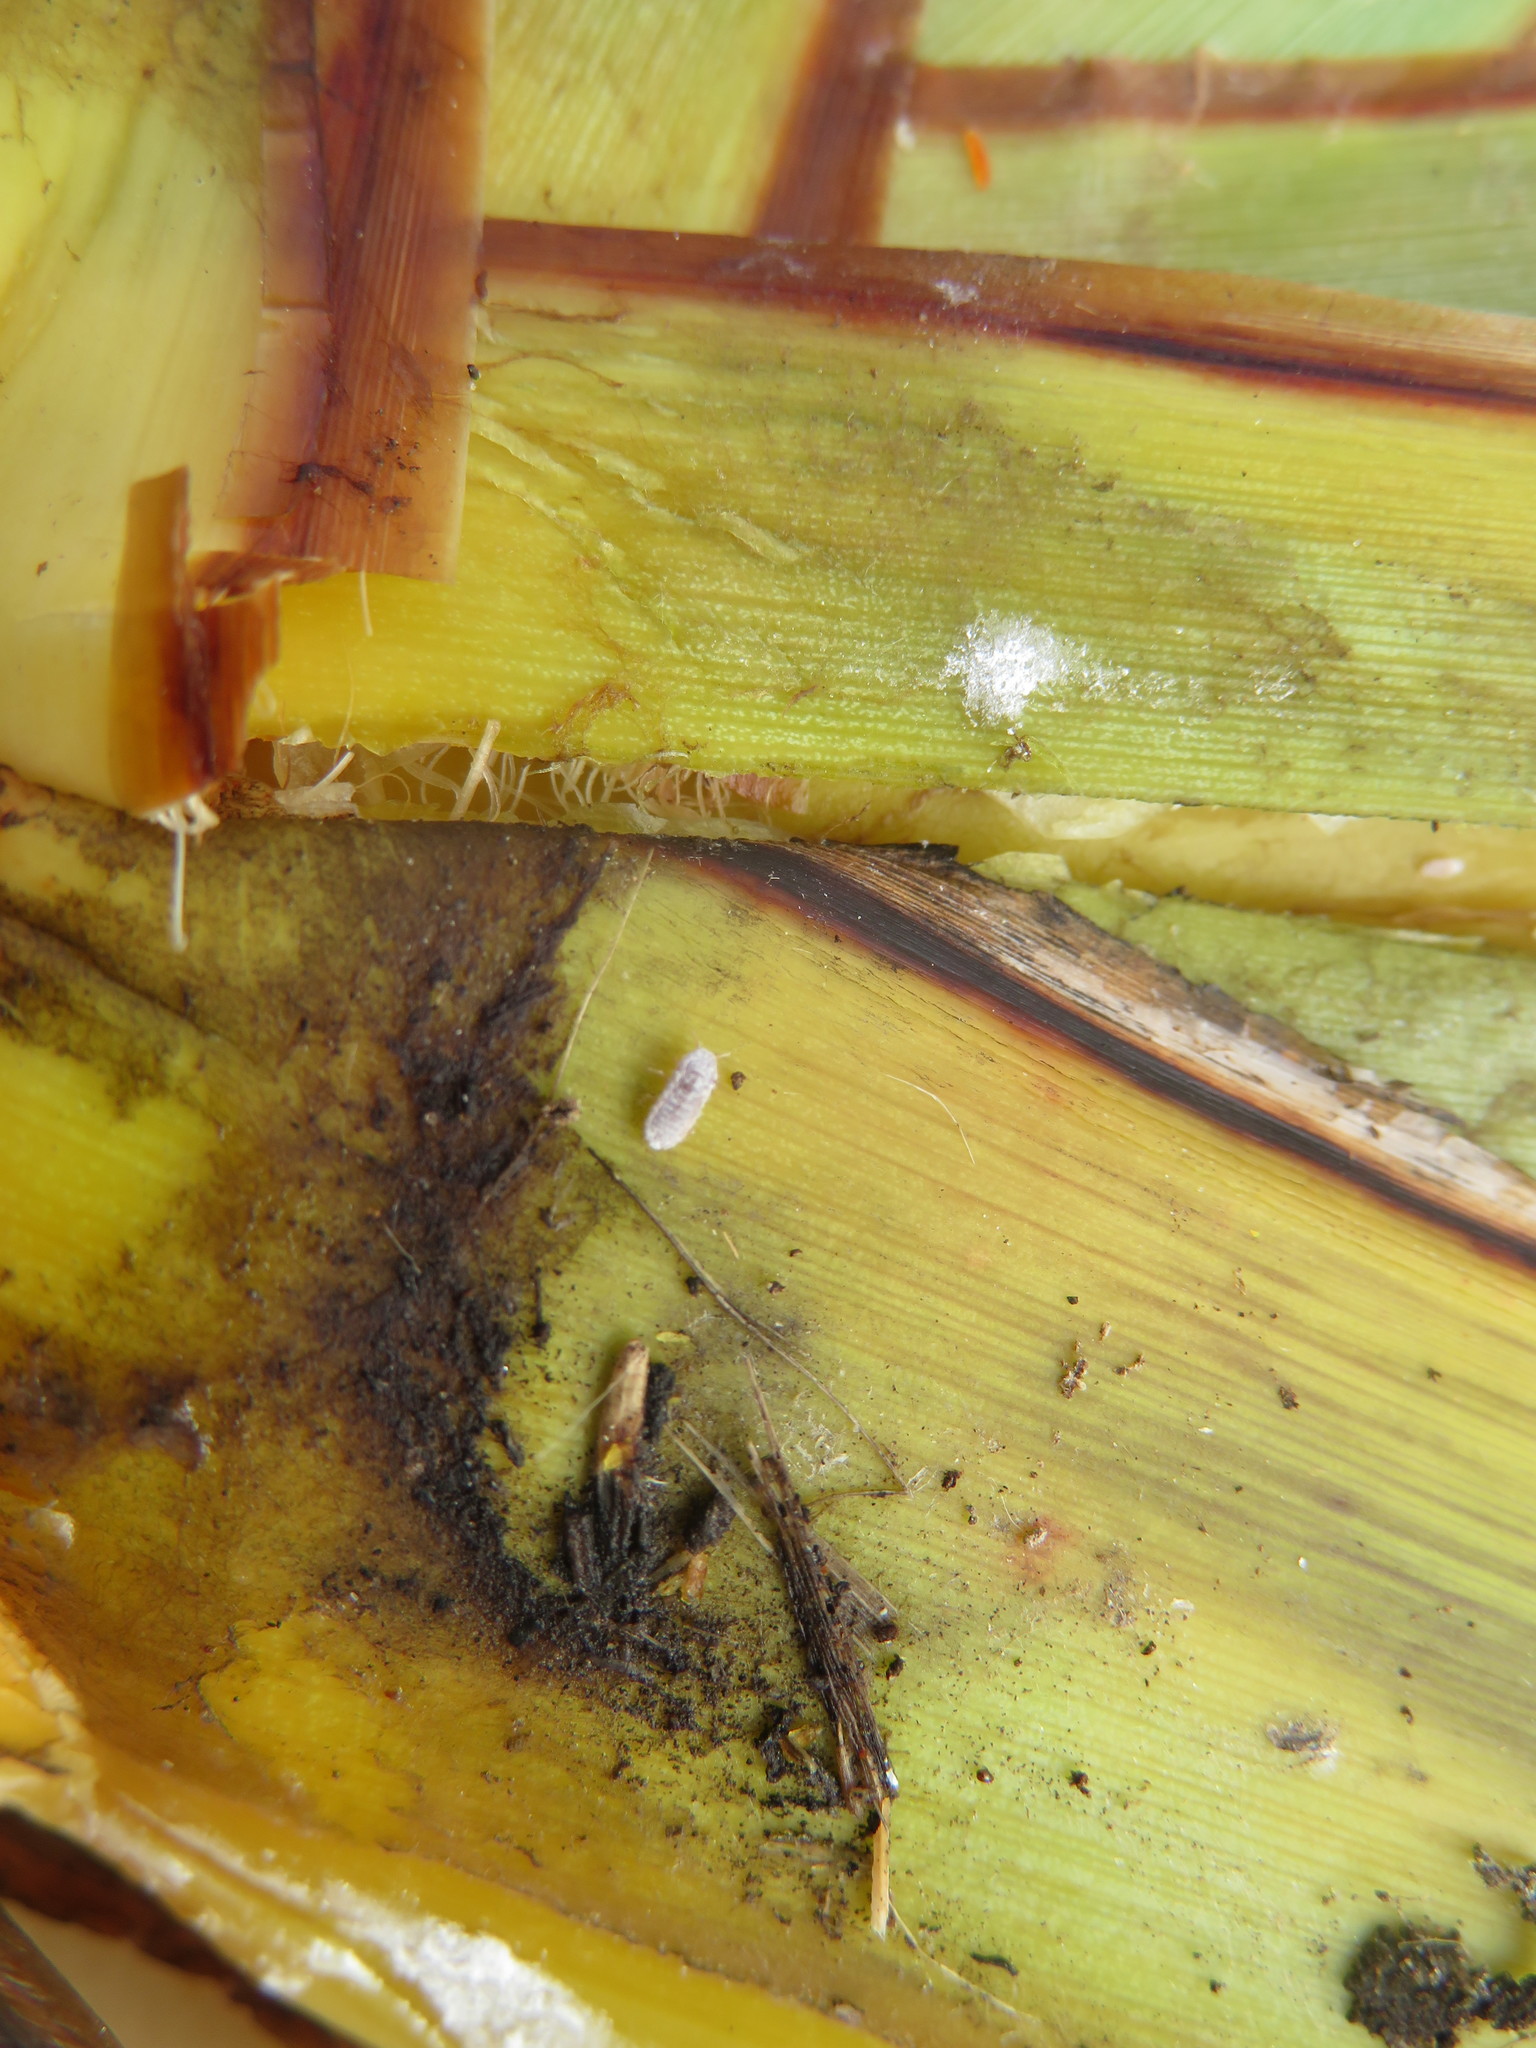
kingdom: Animalia
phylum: Arthropoda
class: Insecta
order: Hemiptera
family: Pseudococcidae
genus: Balanococcus
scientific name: Balanococcus diminutus
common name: New zealand flax mealybug
